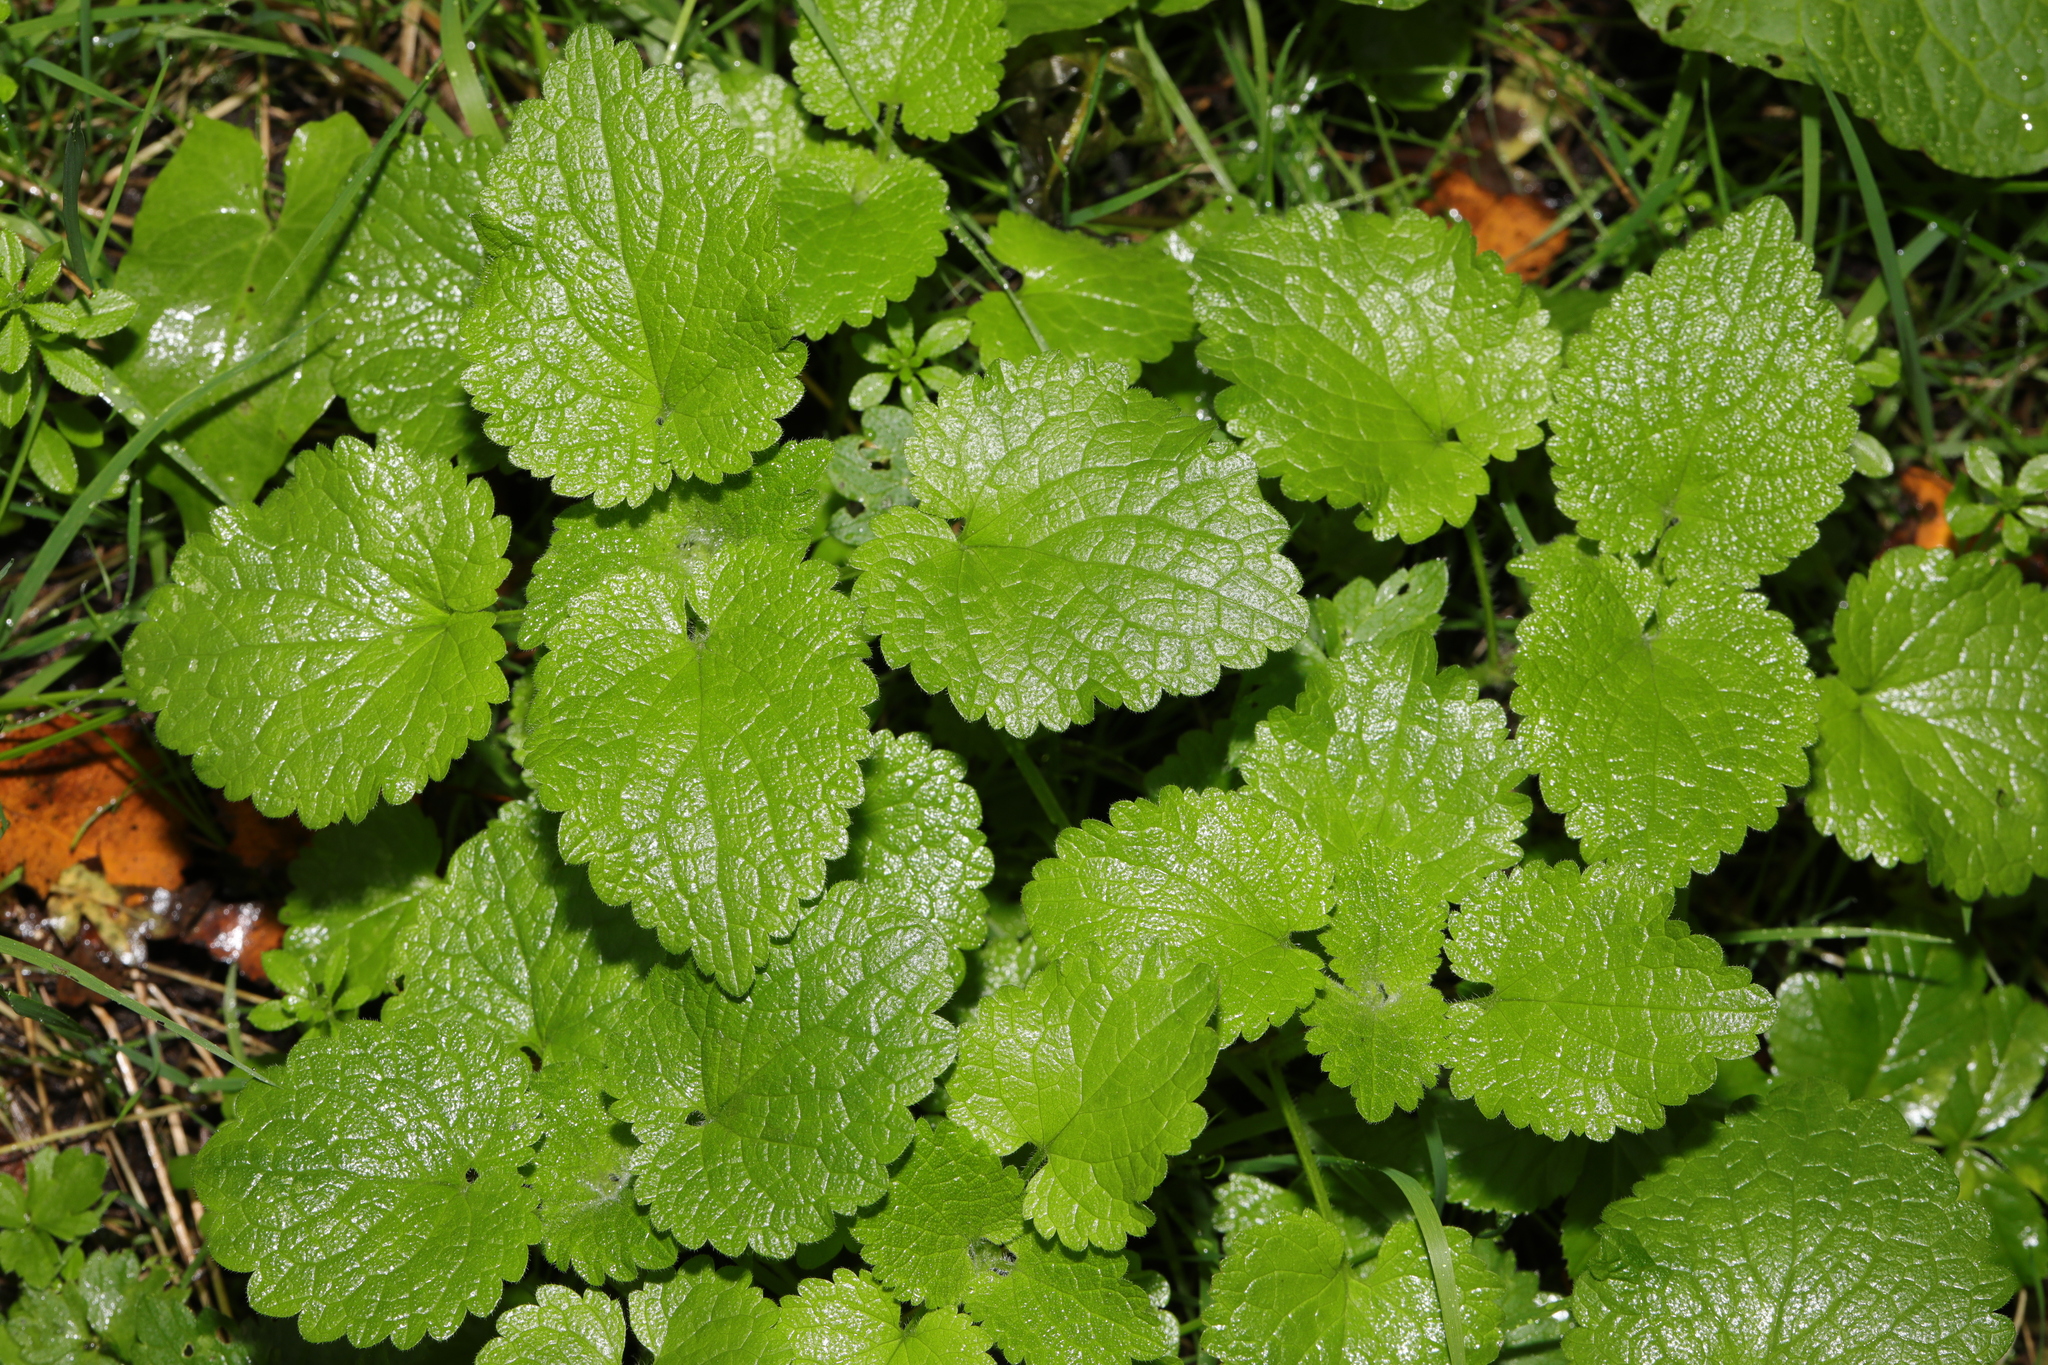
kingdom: Plantae
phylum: Tracheophyta
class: Magnoliopsida
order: Lamiales
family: Lamiaceae
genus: Stachys
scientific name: Stachys sylvatica
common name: Hedge woundwort
